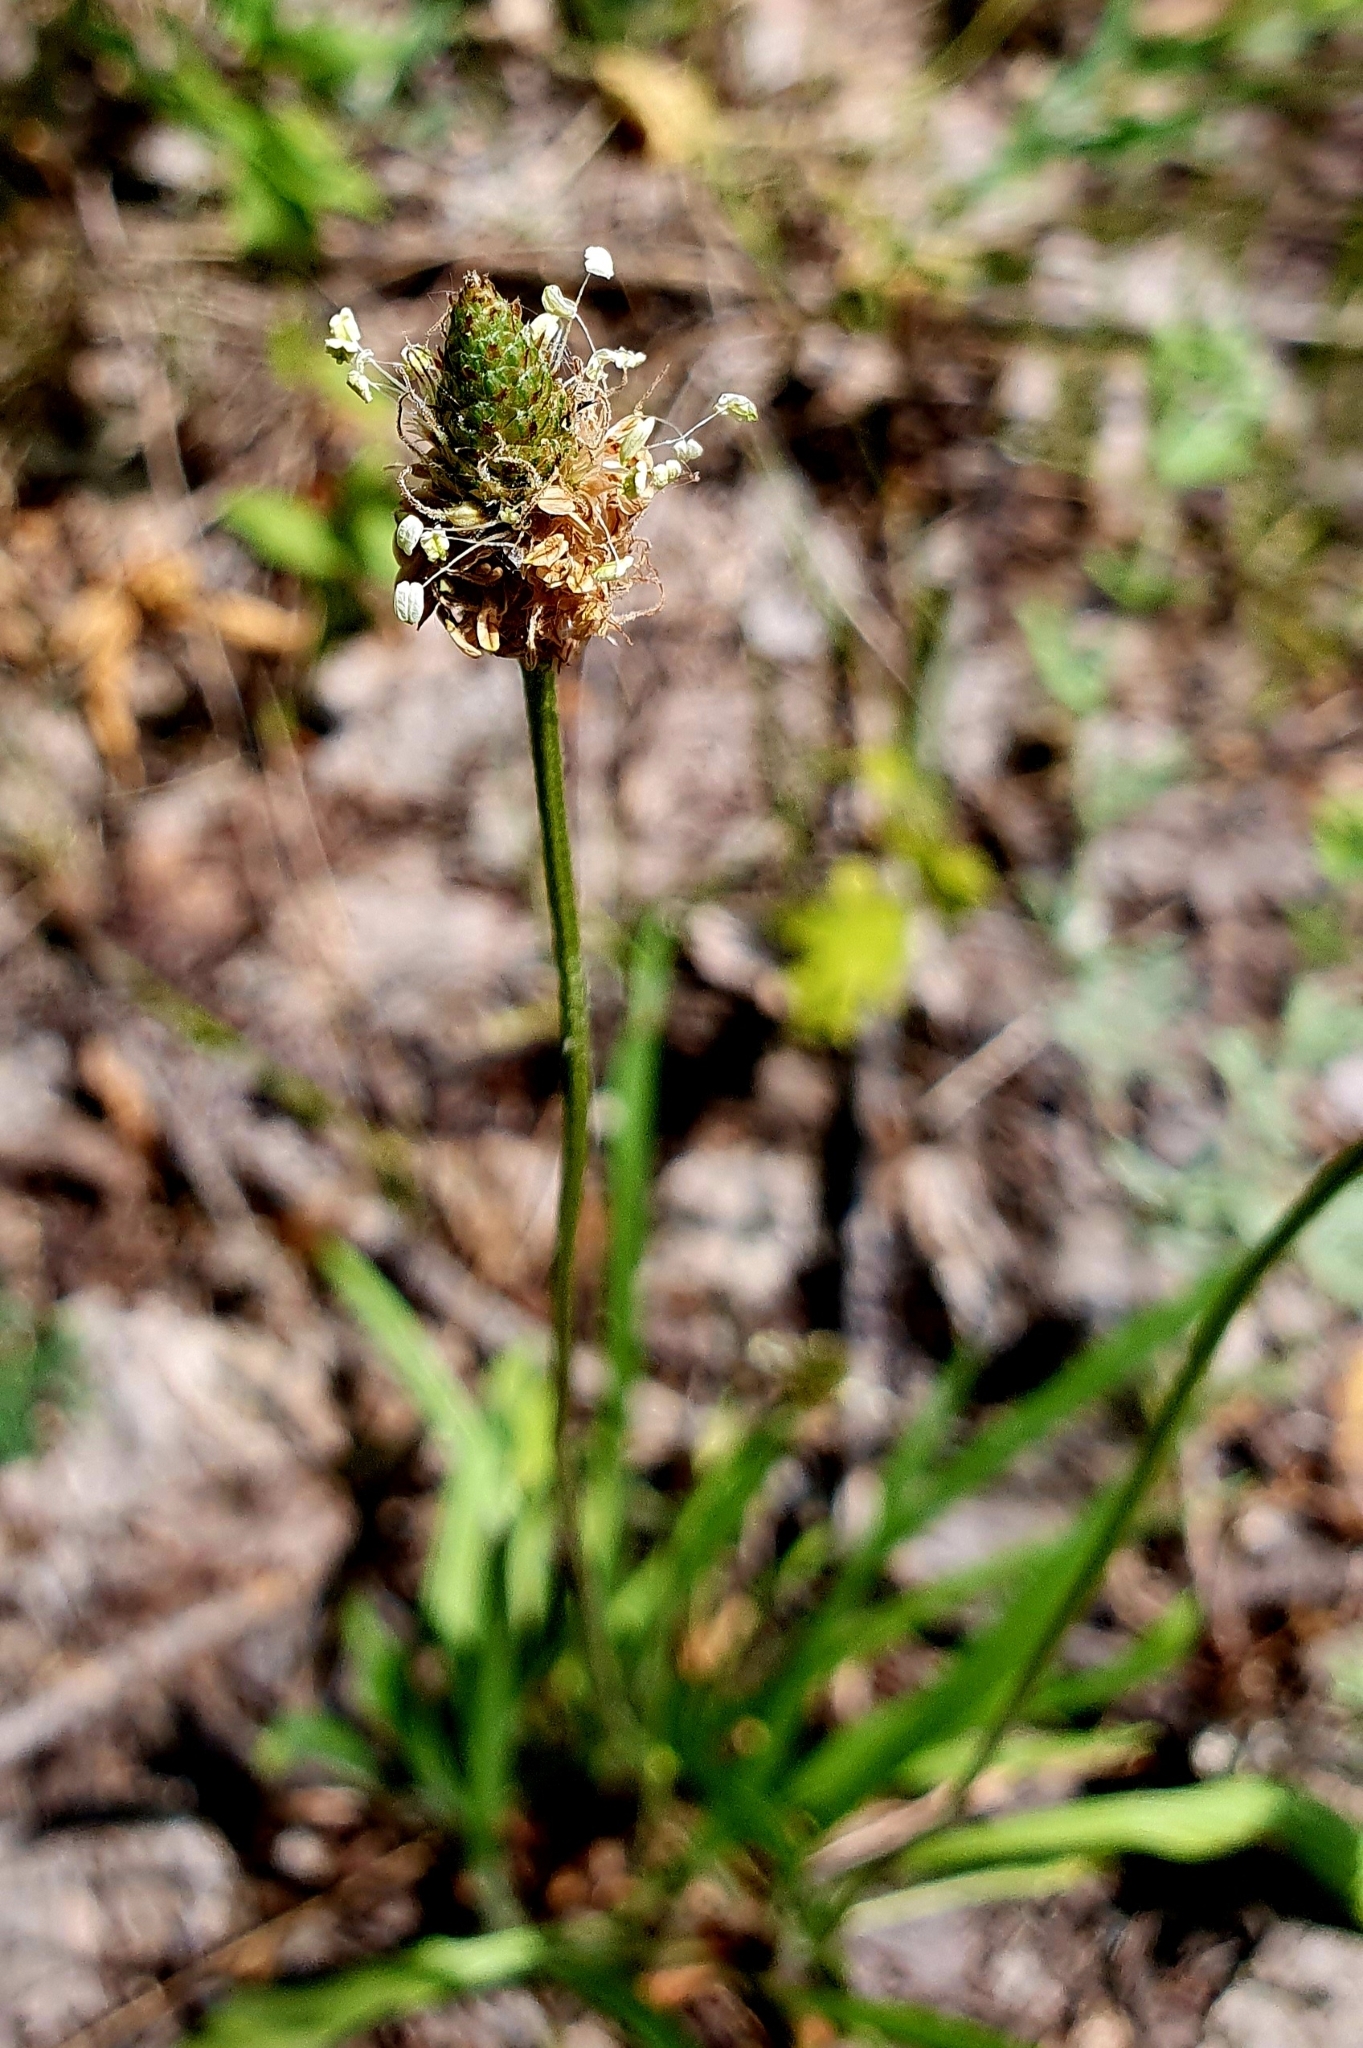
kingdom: Plantae
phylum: Tracheophyta
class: Magnoliopsida
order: Lamiales
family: Plantaginaceae
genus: Plantago
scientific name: Plantago lanceolata
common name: Ribwort plantain
